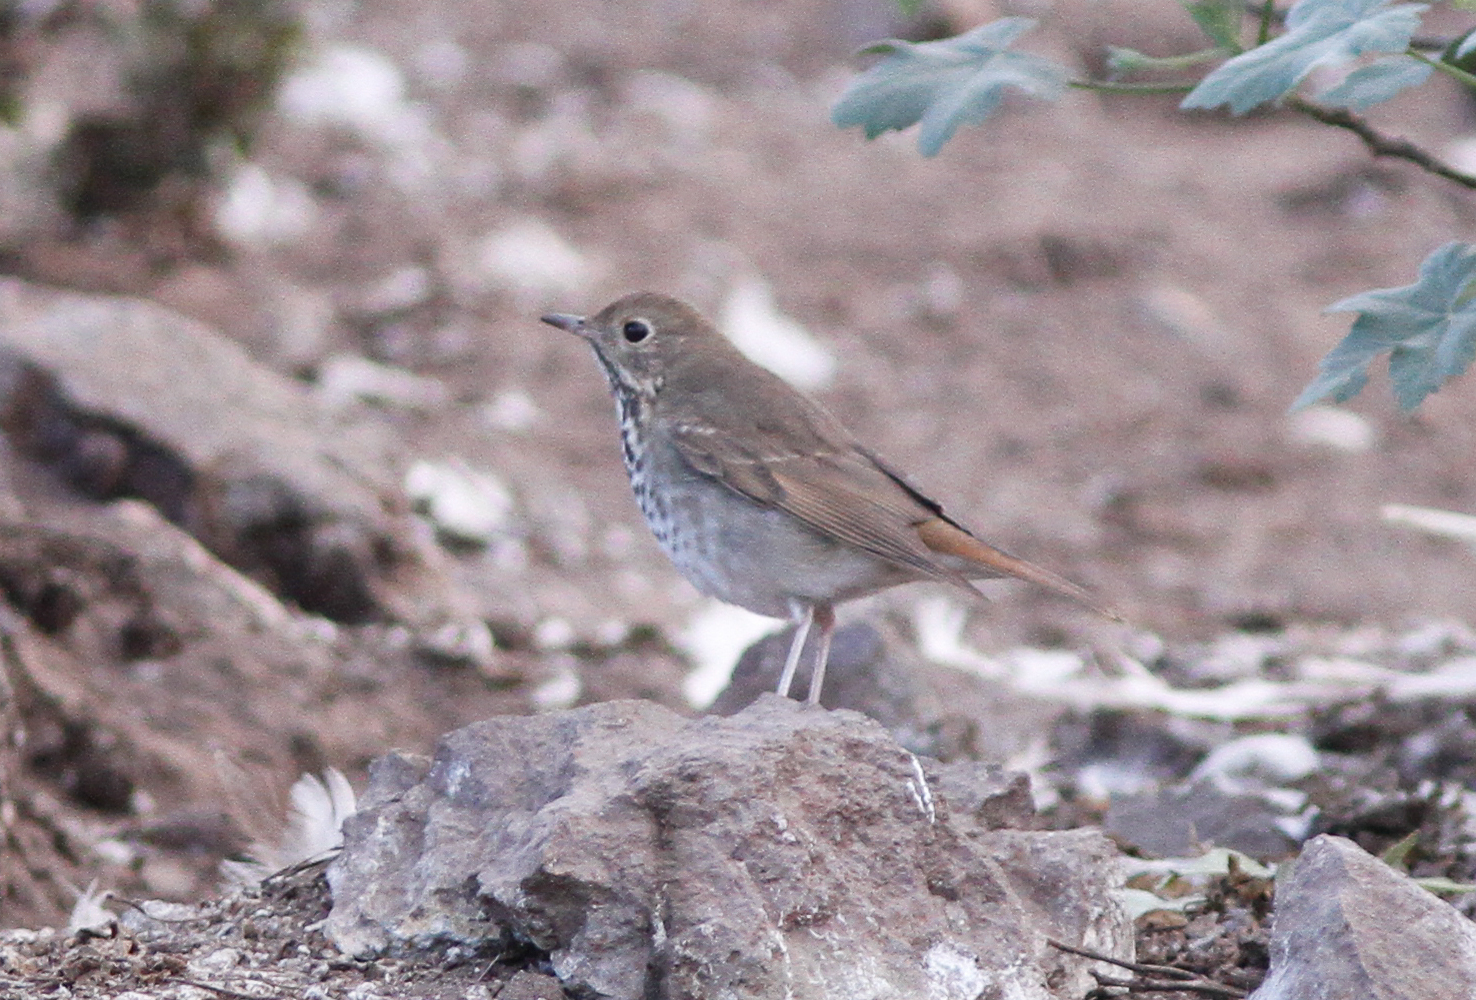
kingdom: Animalia
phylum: Chordata
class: Aves
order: Passeriformes
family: Turdidae
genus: Catharus
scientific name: Catharus guttatus
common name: Hermit thrush
